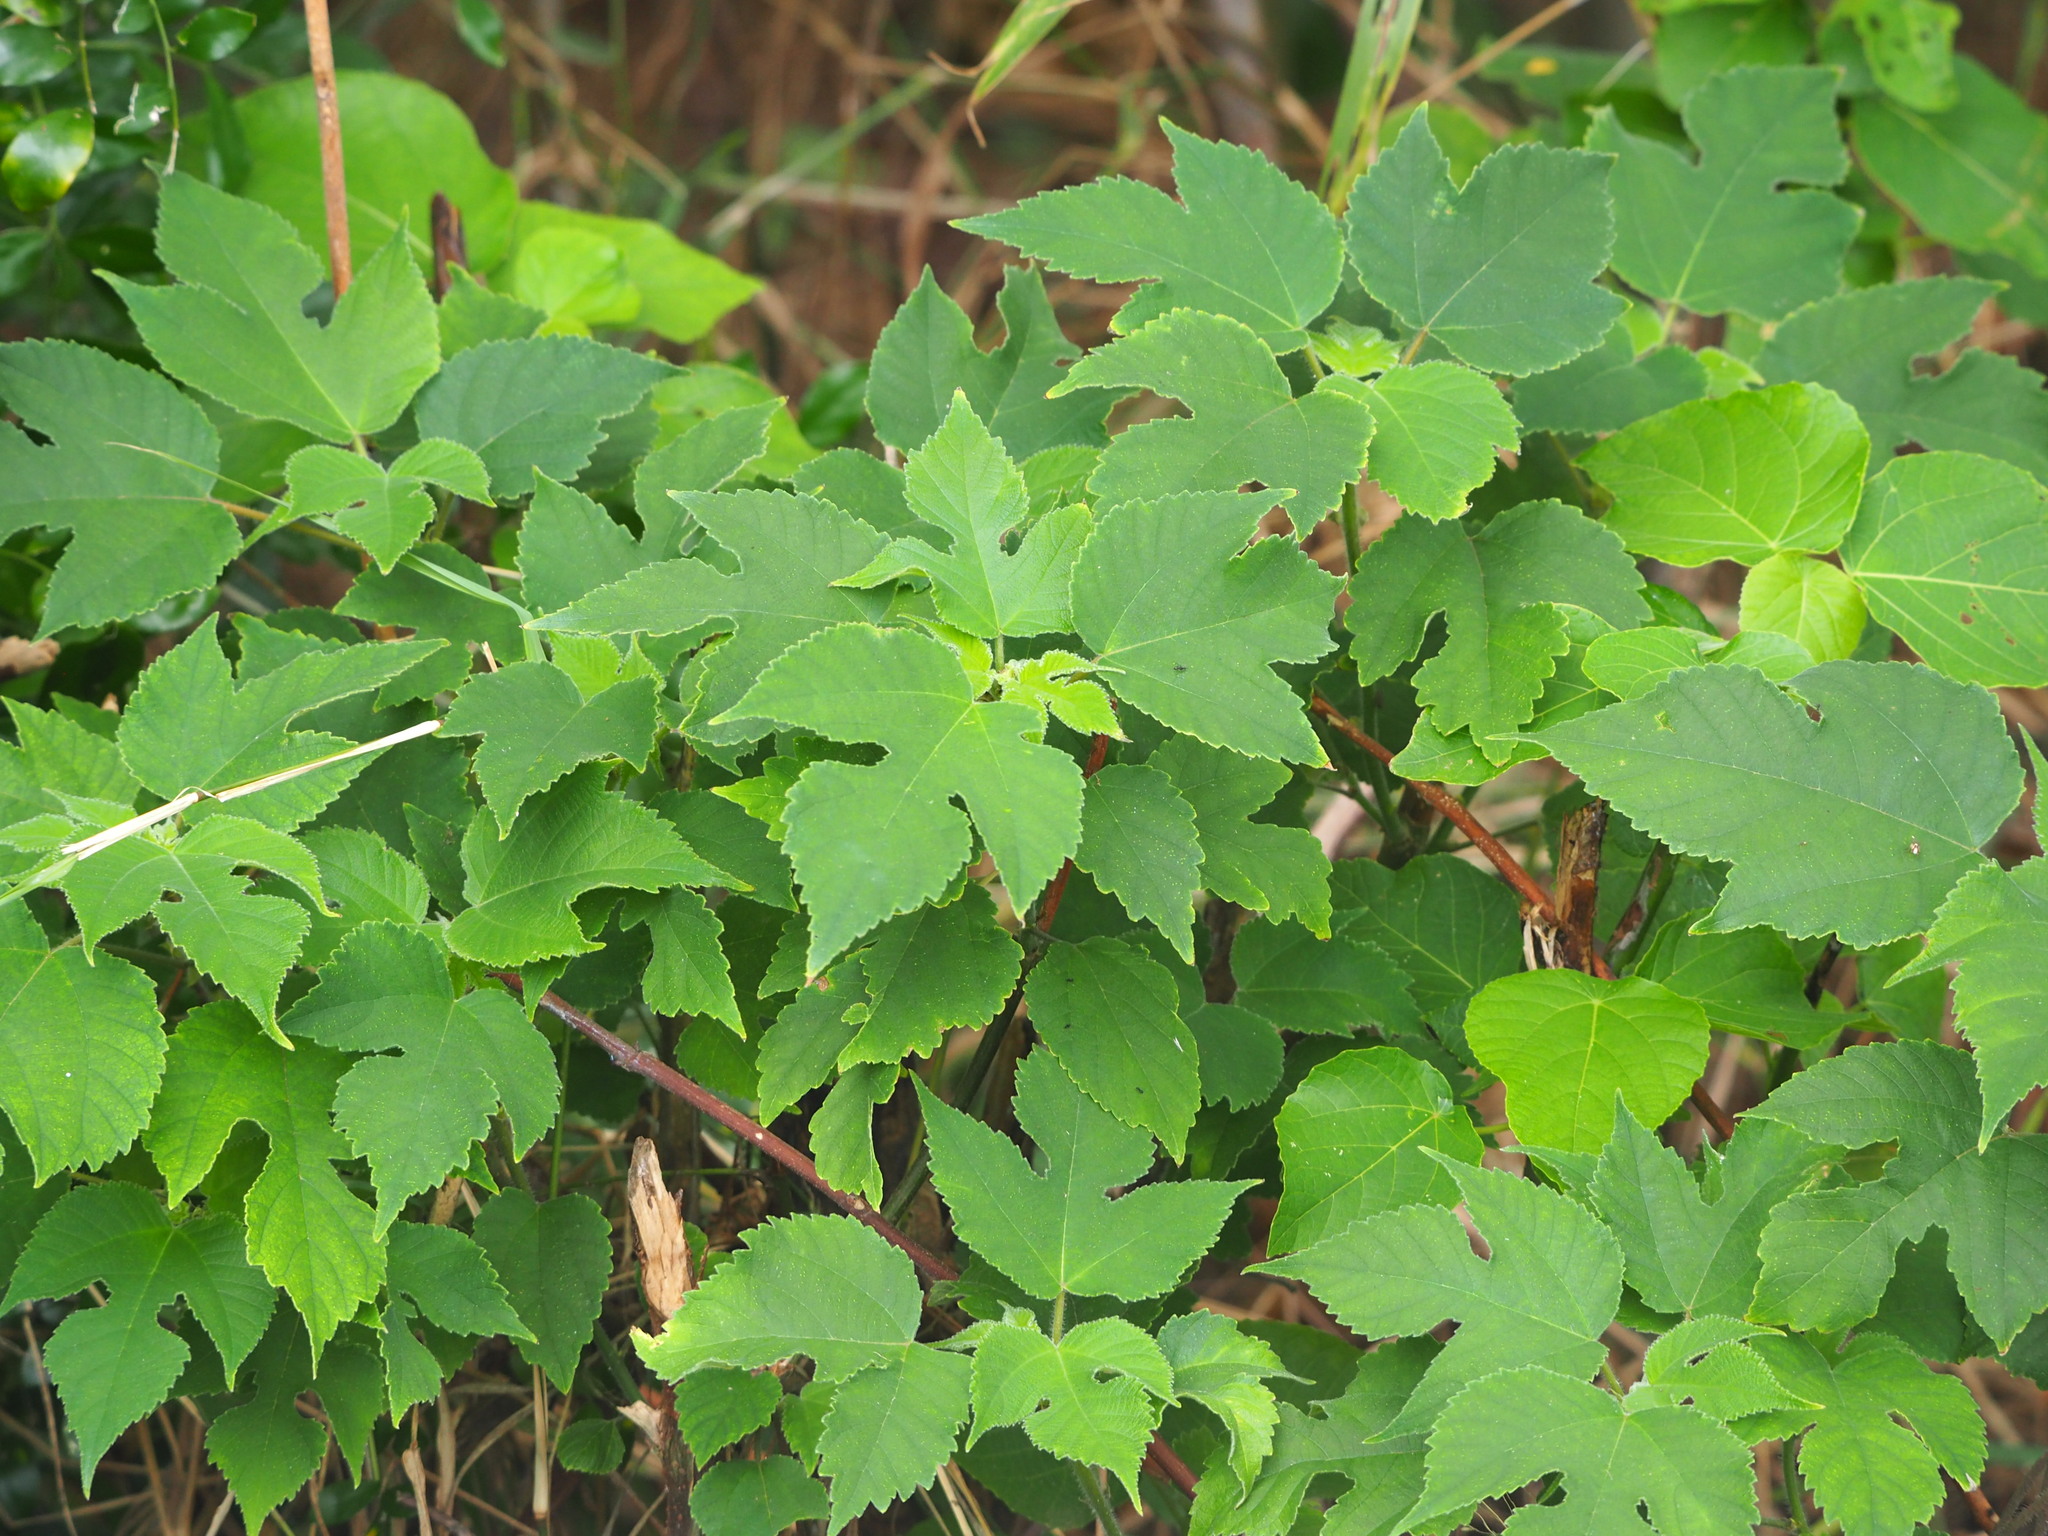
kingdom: Plantae
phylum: Tracheophyta
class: Magnoliopsida
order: Rosales
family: Moraceae
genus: Broussonetia
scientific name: Broussonetia papyrifera
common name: Paper mulberry
